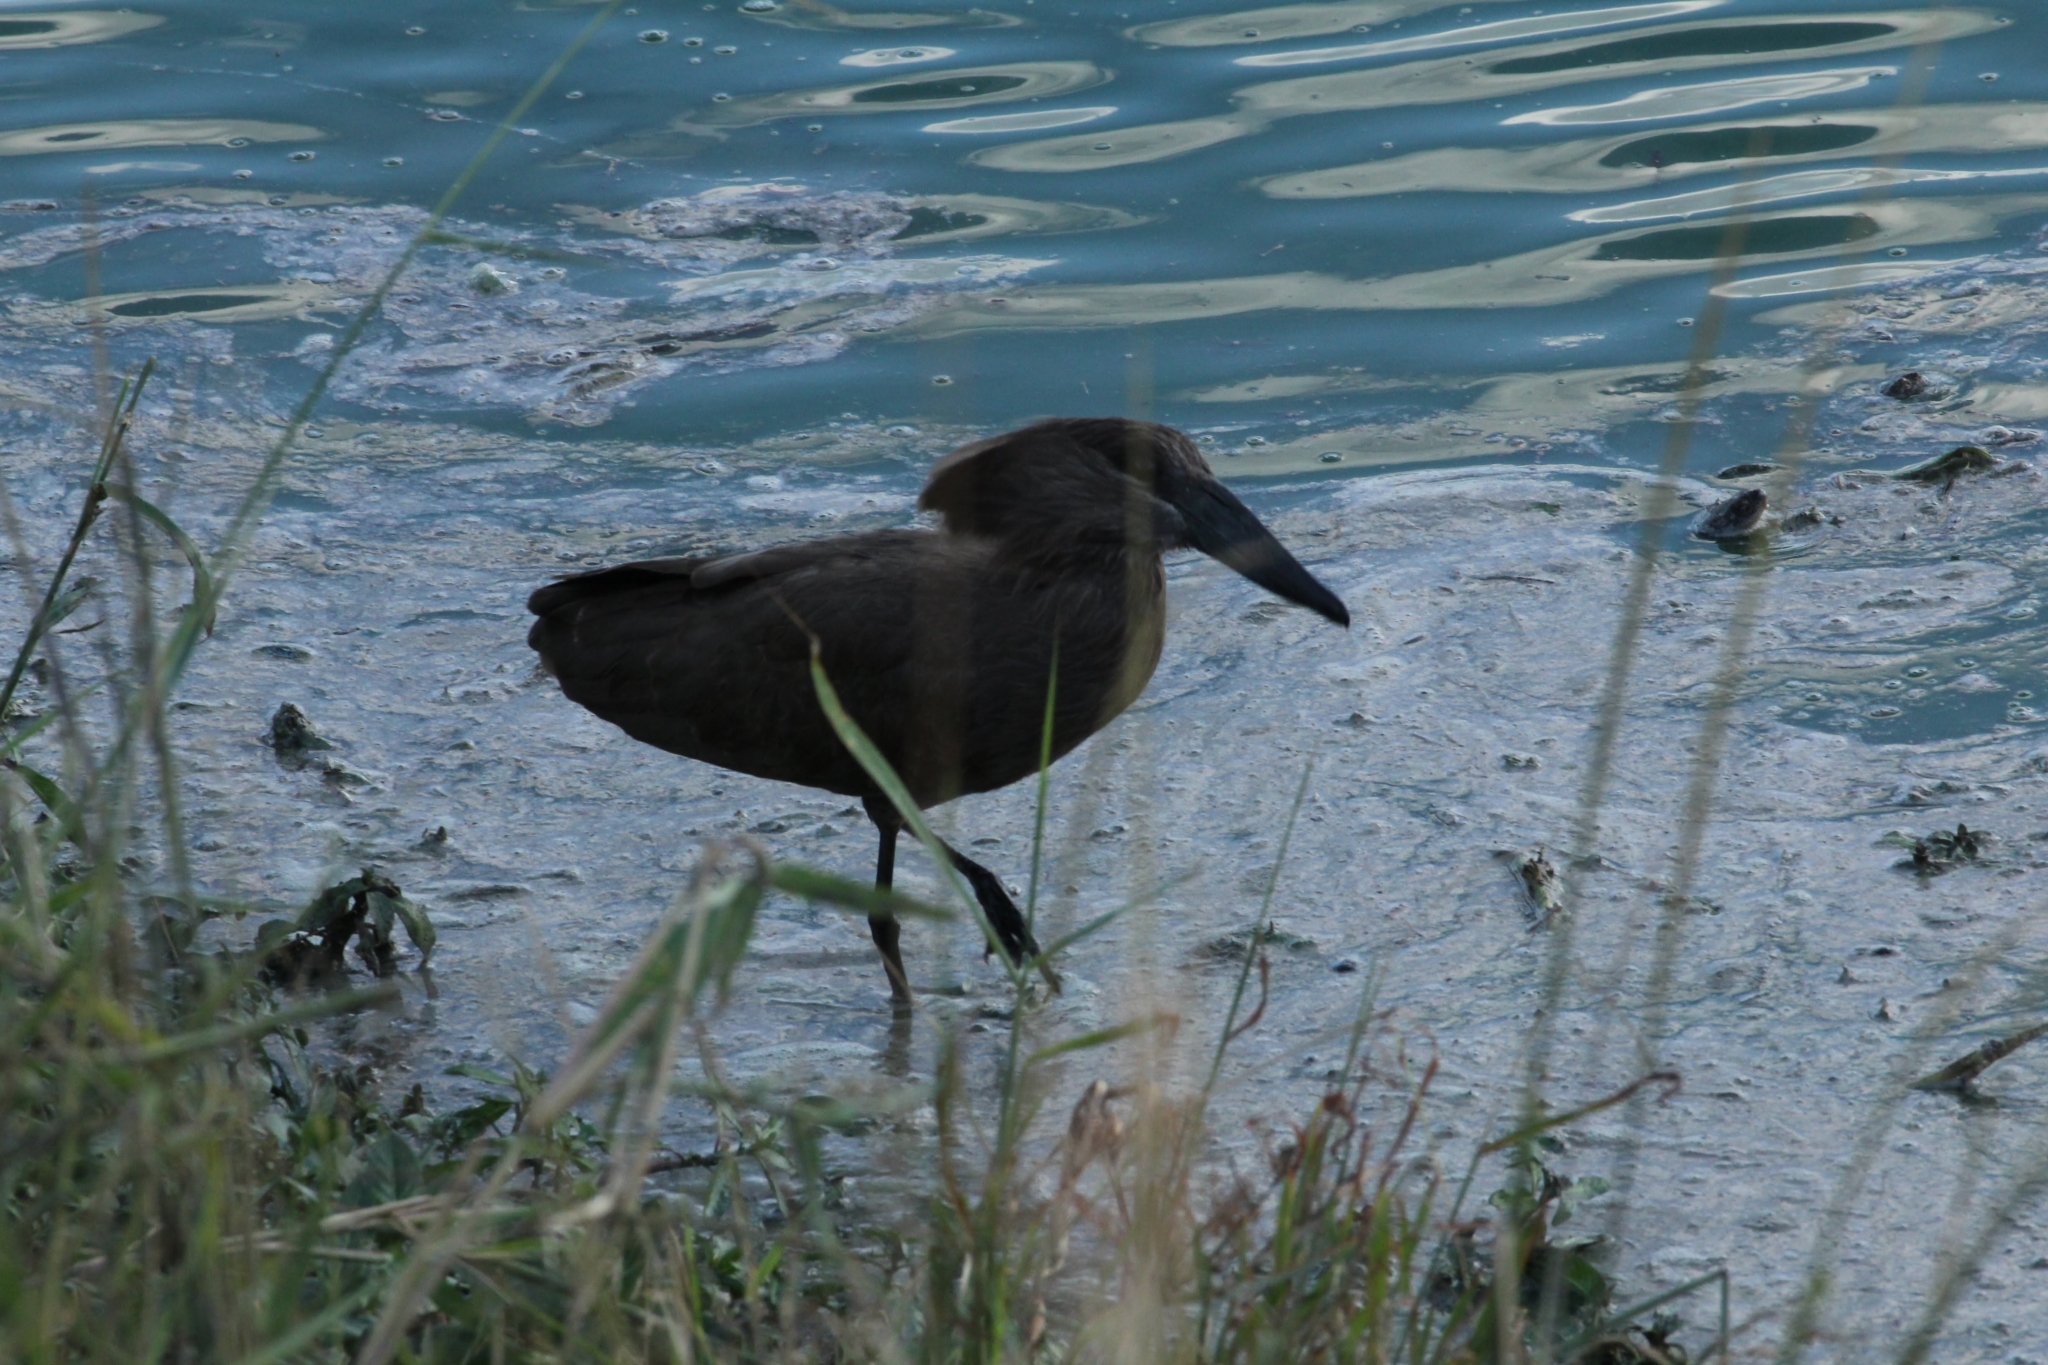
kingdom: Animalia
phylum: Chordata
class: Aves
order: Pelecaniformes
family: Scopidae
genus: Scopus
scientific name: Scopus umbretta
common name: Hamerkop
